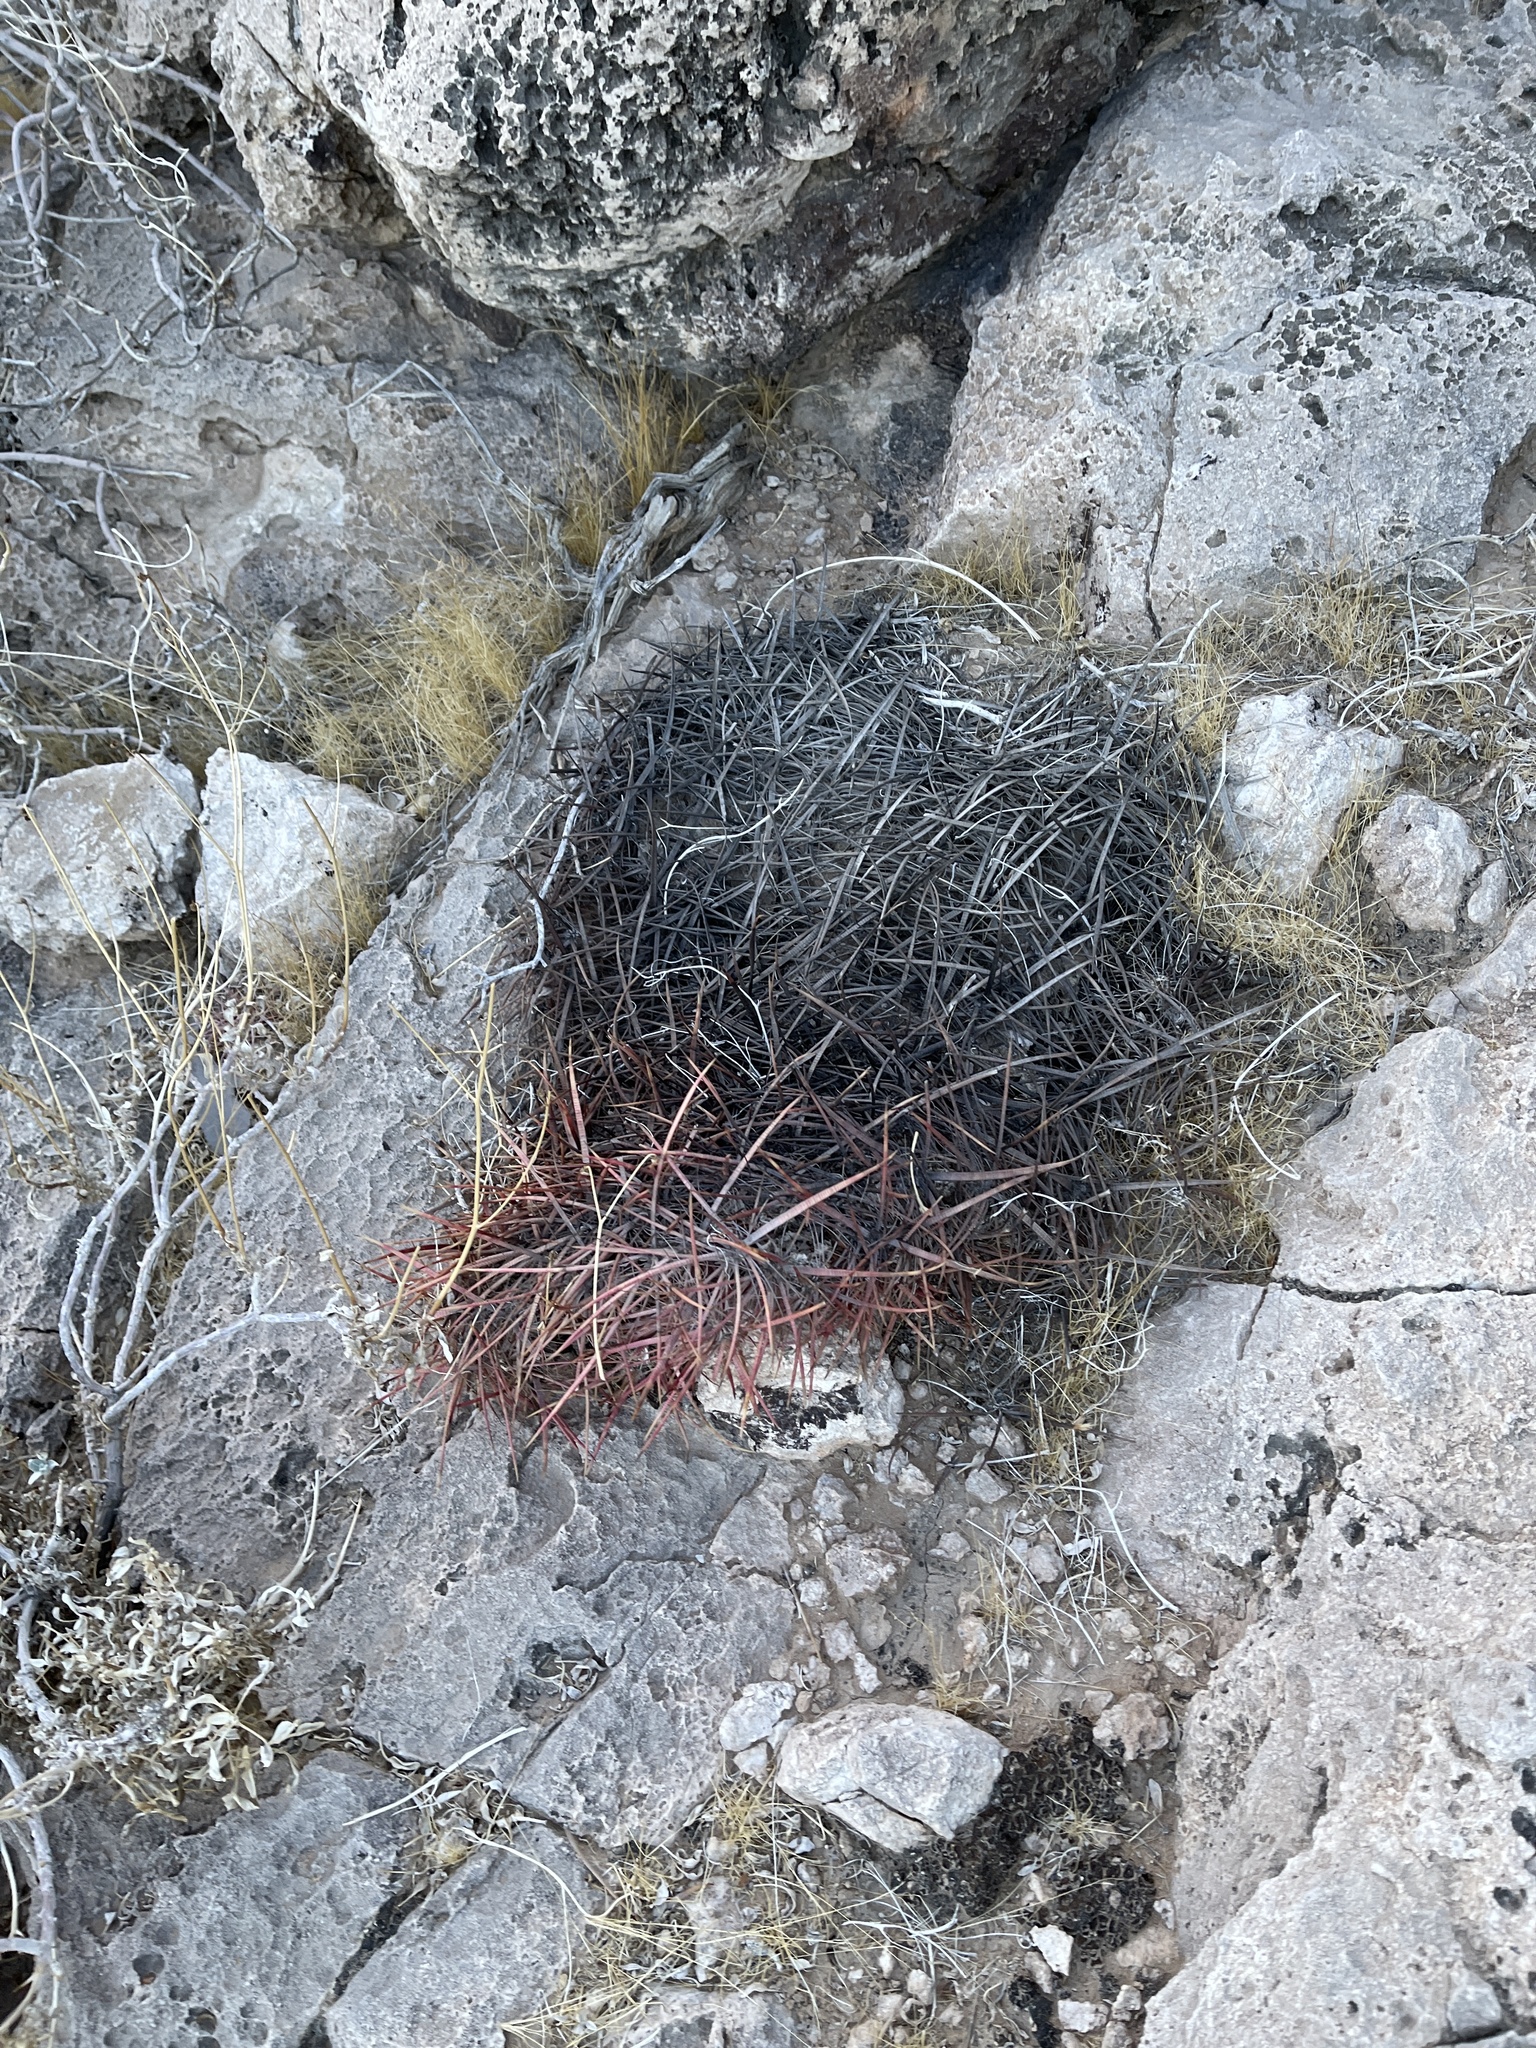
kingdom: Plantae
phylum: Tracheophyta
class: Magnoliopsida
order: Caryophyllales
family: Cactaceae
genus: Ferocactus
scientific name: Ferocactus cylindraceus
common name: California barrel cactus
